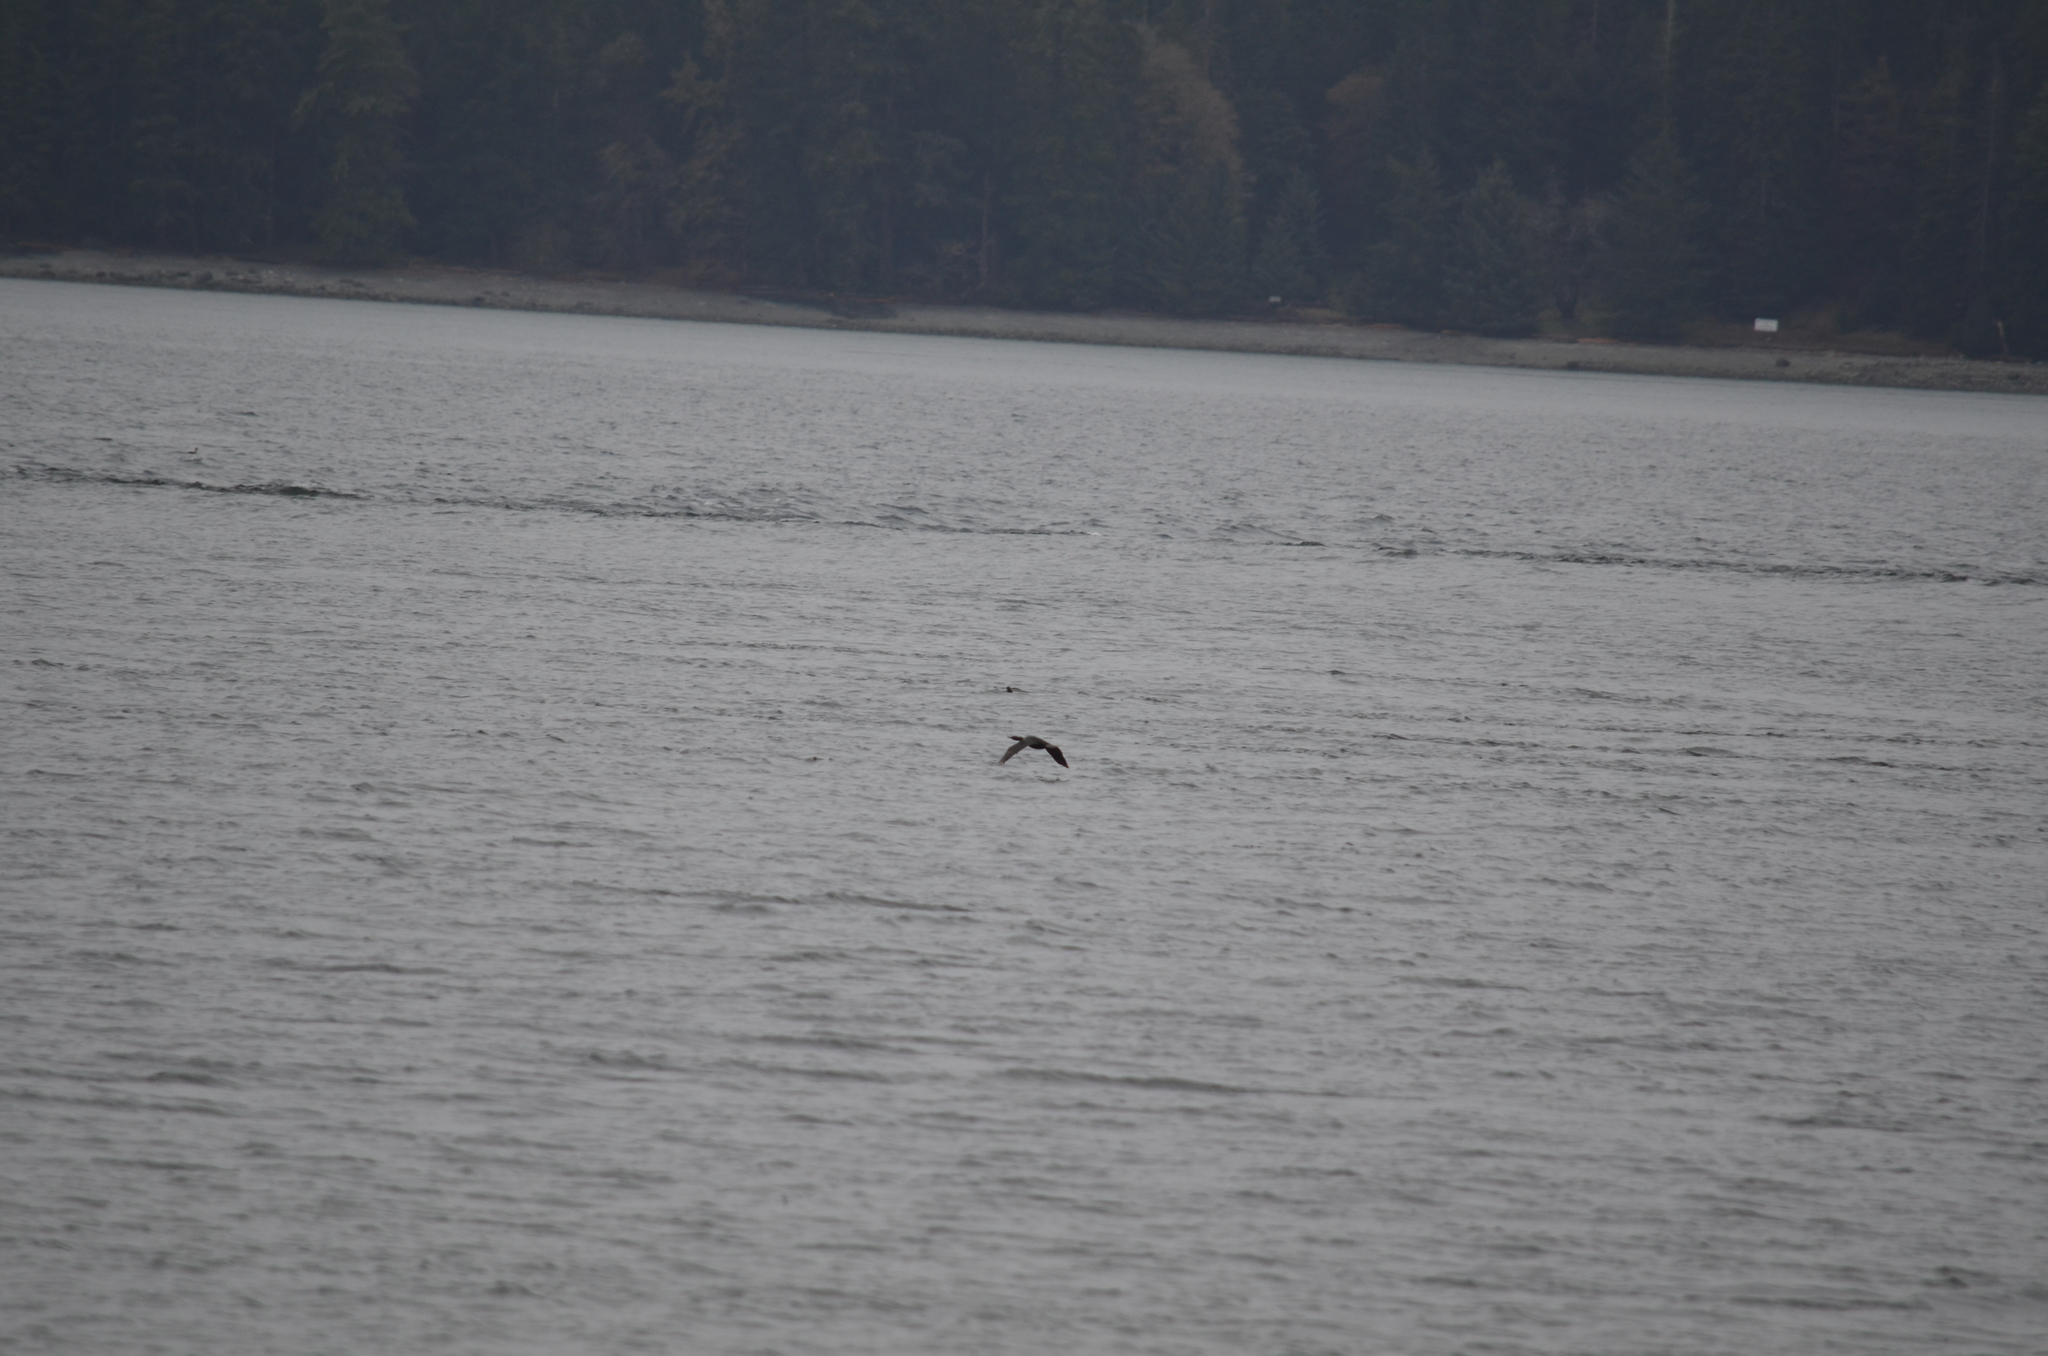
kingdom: Animalia
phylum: Chordata
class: Aves
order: Suliformes
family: Phalacrocoracidae
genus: Phalacrocorax
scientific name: Phalacrocorax pelagicus
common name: Pelagic cormorant
